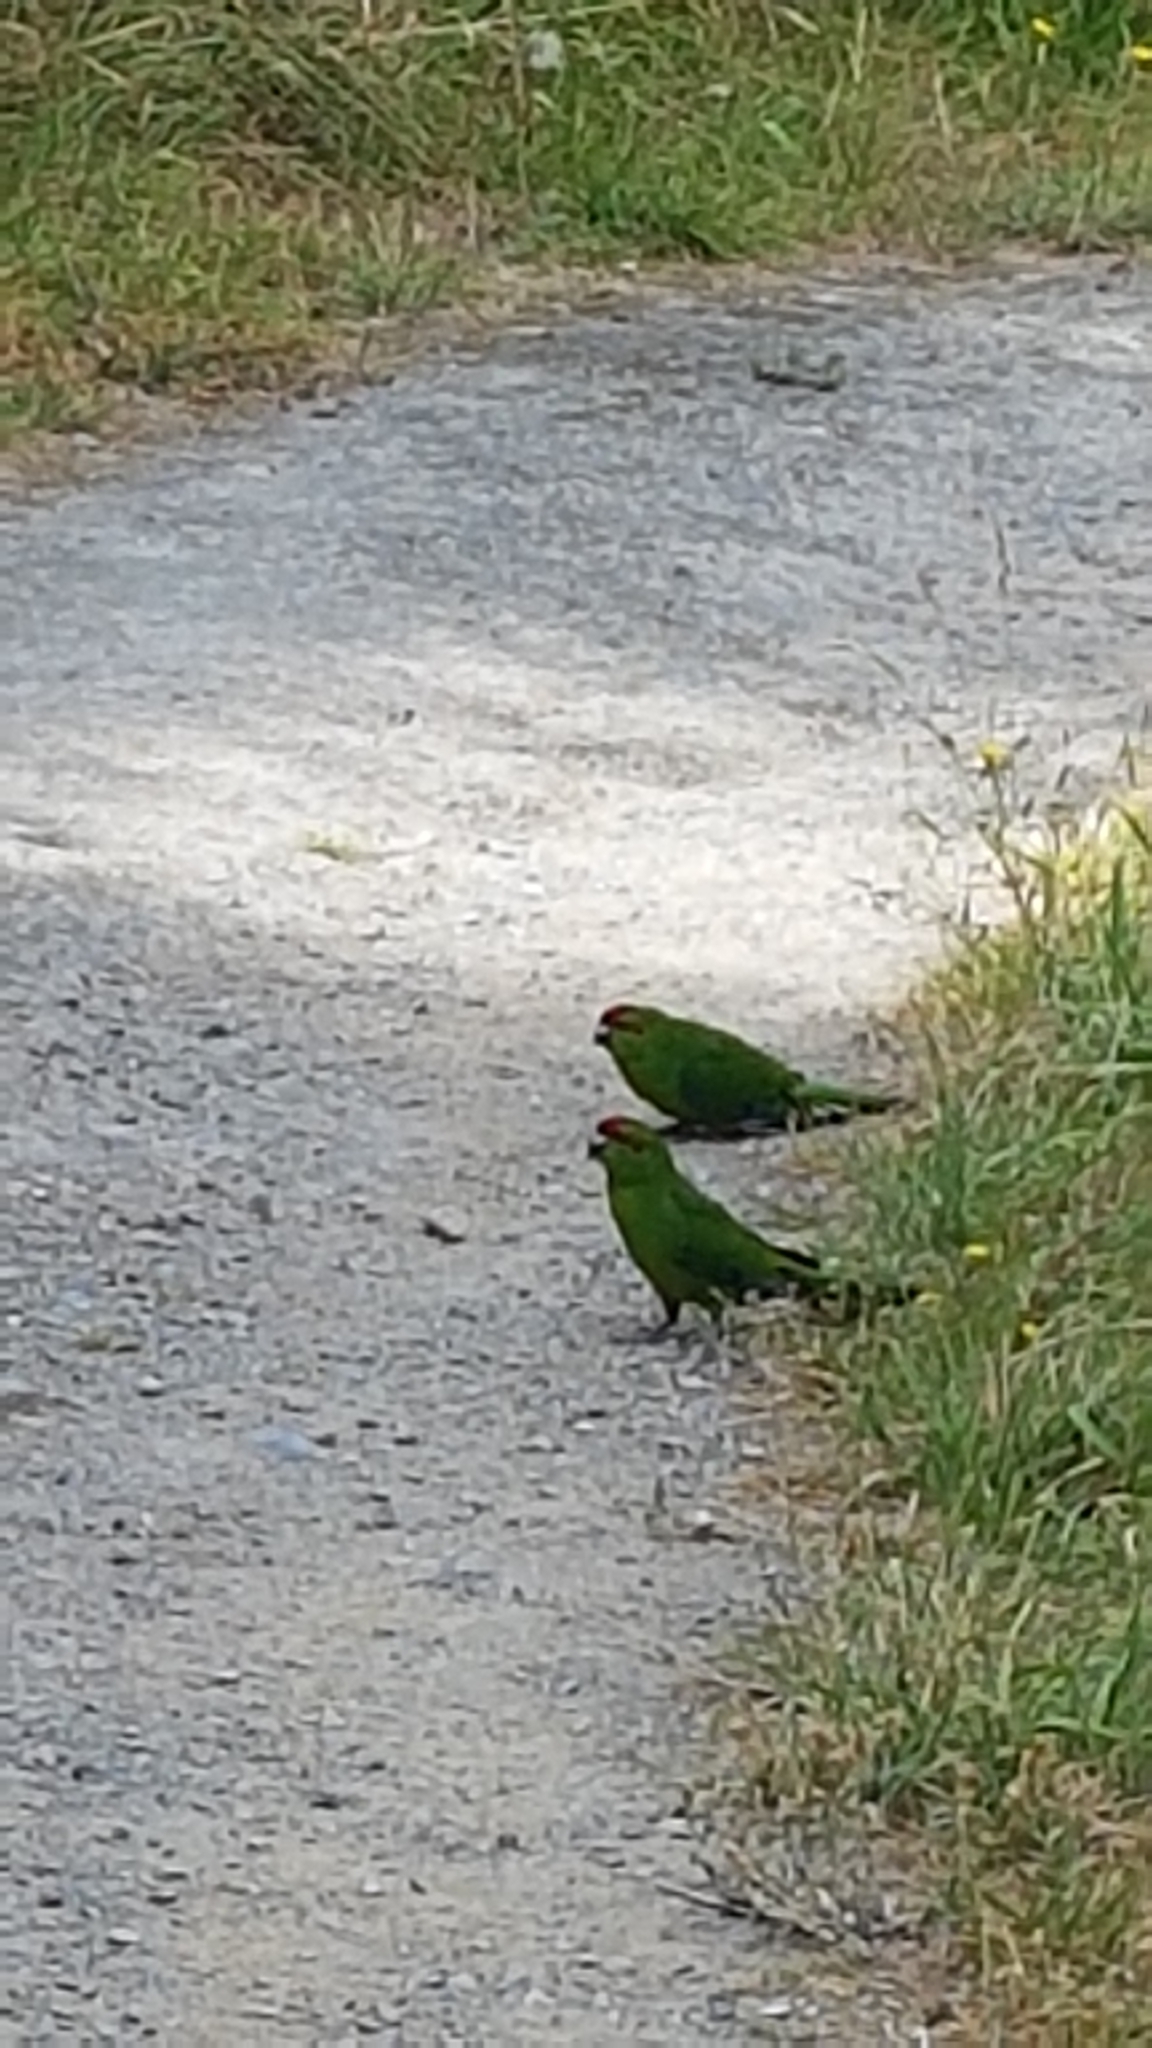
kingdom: Animalia
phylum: Chordata
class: Aves
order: Psittaciformes
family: Psittacidae
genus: Cyanoramphus
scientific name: Cyanoramphus novaezelandiae
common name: Red-fronted parakeet
